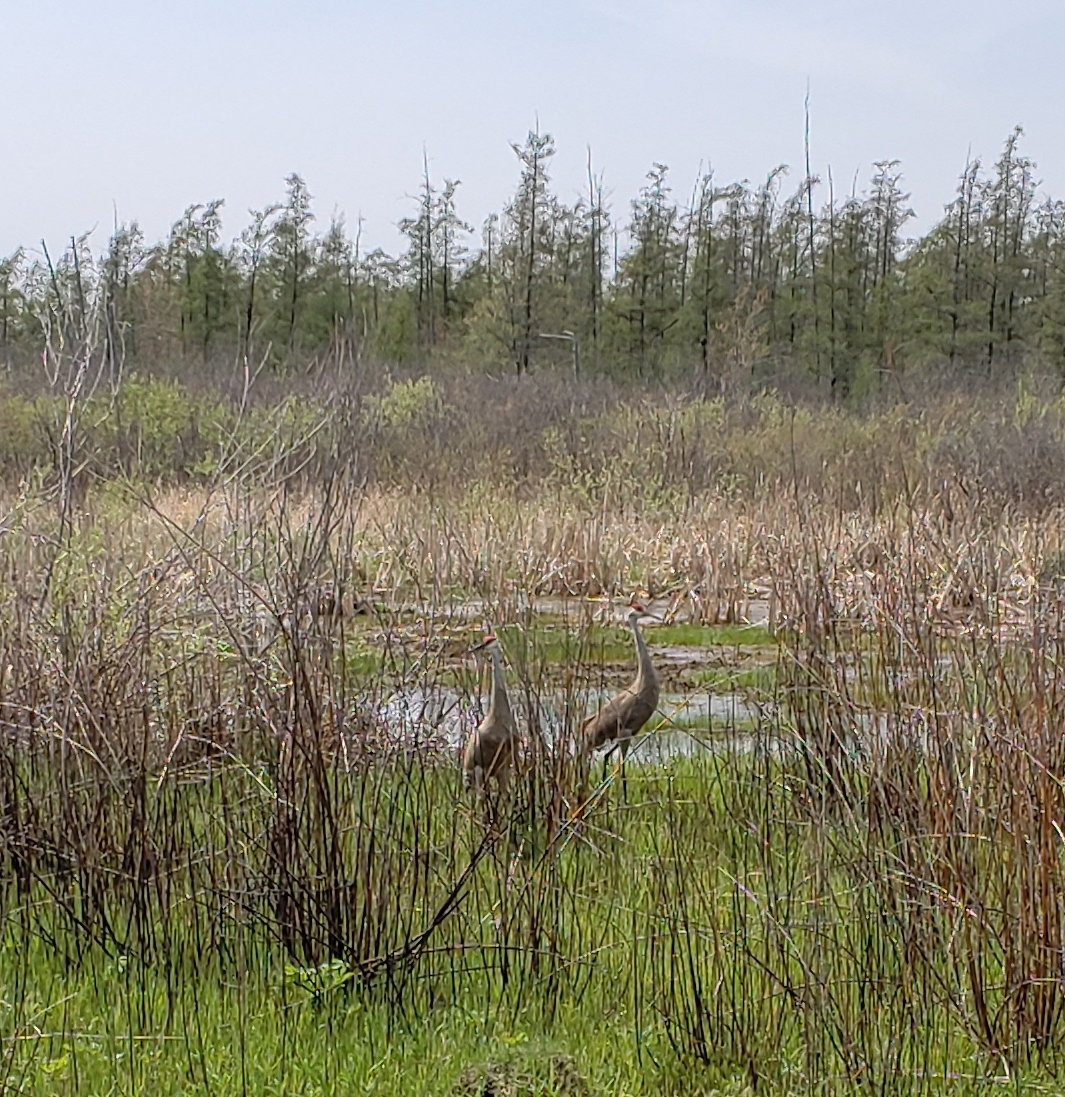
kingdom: Animalia
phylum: Chordata
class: Aves
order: Gruiformes
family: Gruidae
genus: Grus
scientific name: Grus canadensis
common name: Sandhill crane
